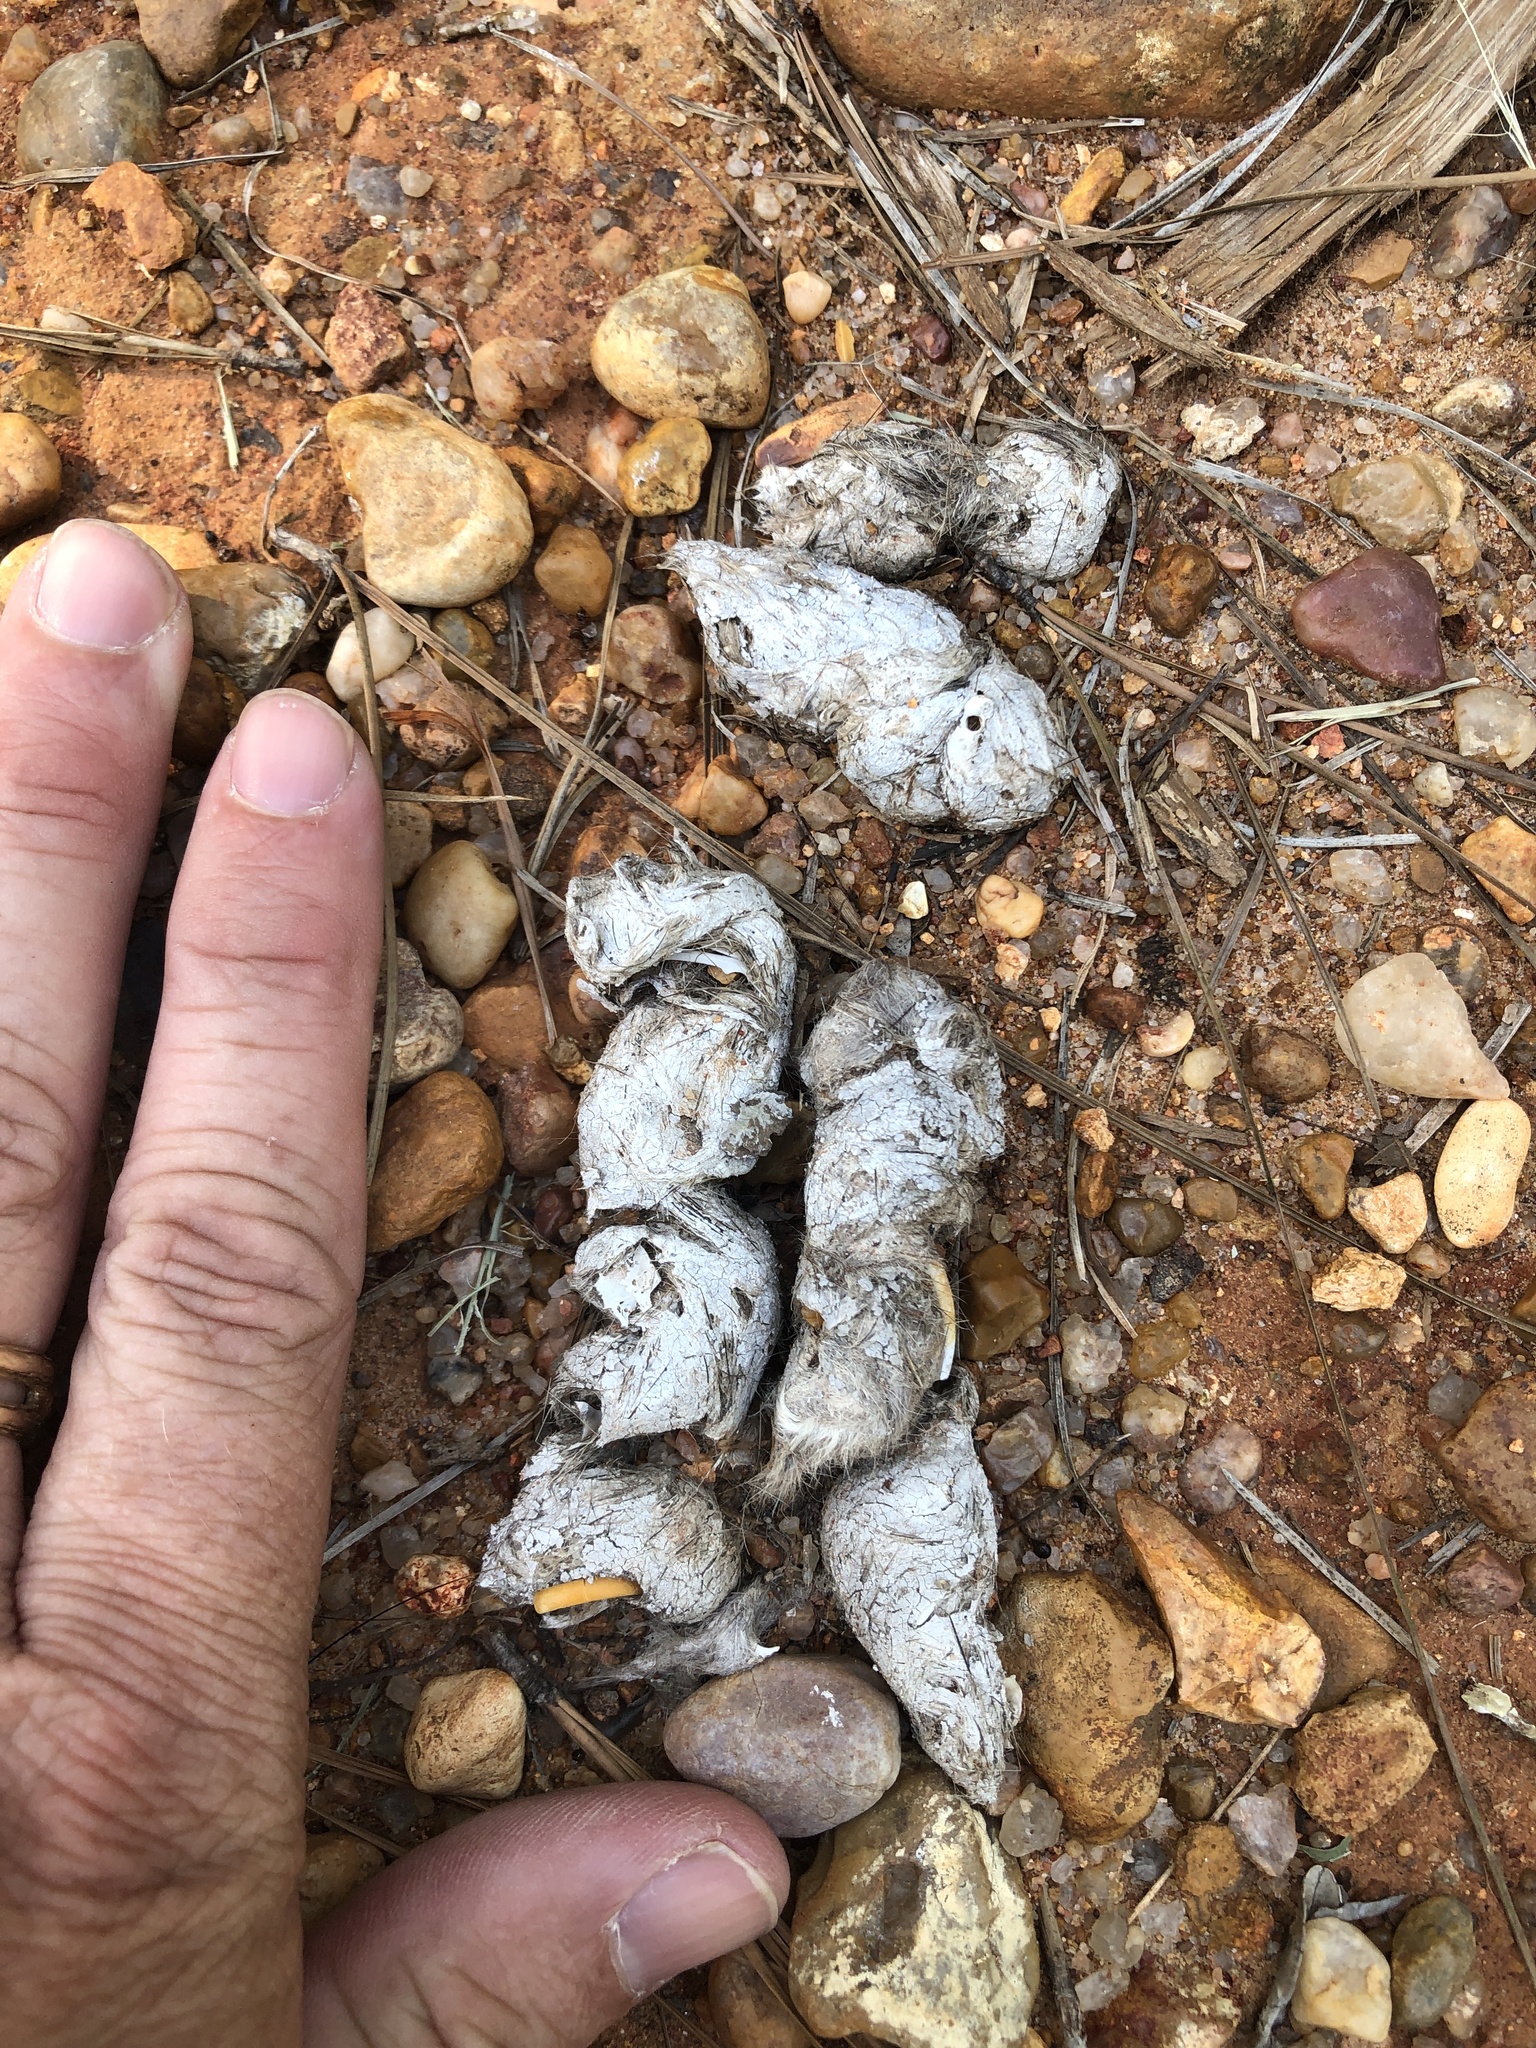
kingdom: Animalia
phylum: Chordata
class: Mammalia
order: Carnivora
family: Canidae
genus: Canis
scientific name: Canis latrans
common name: Coyote
